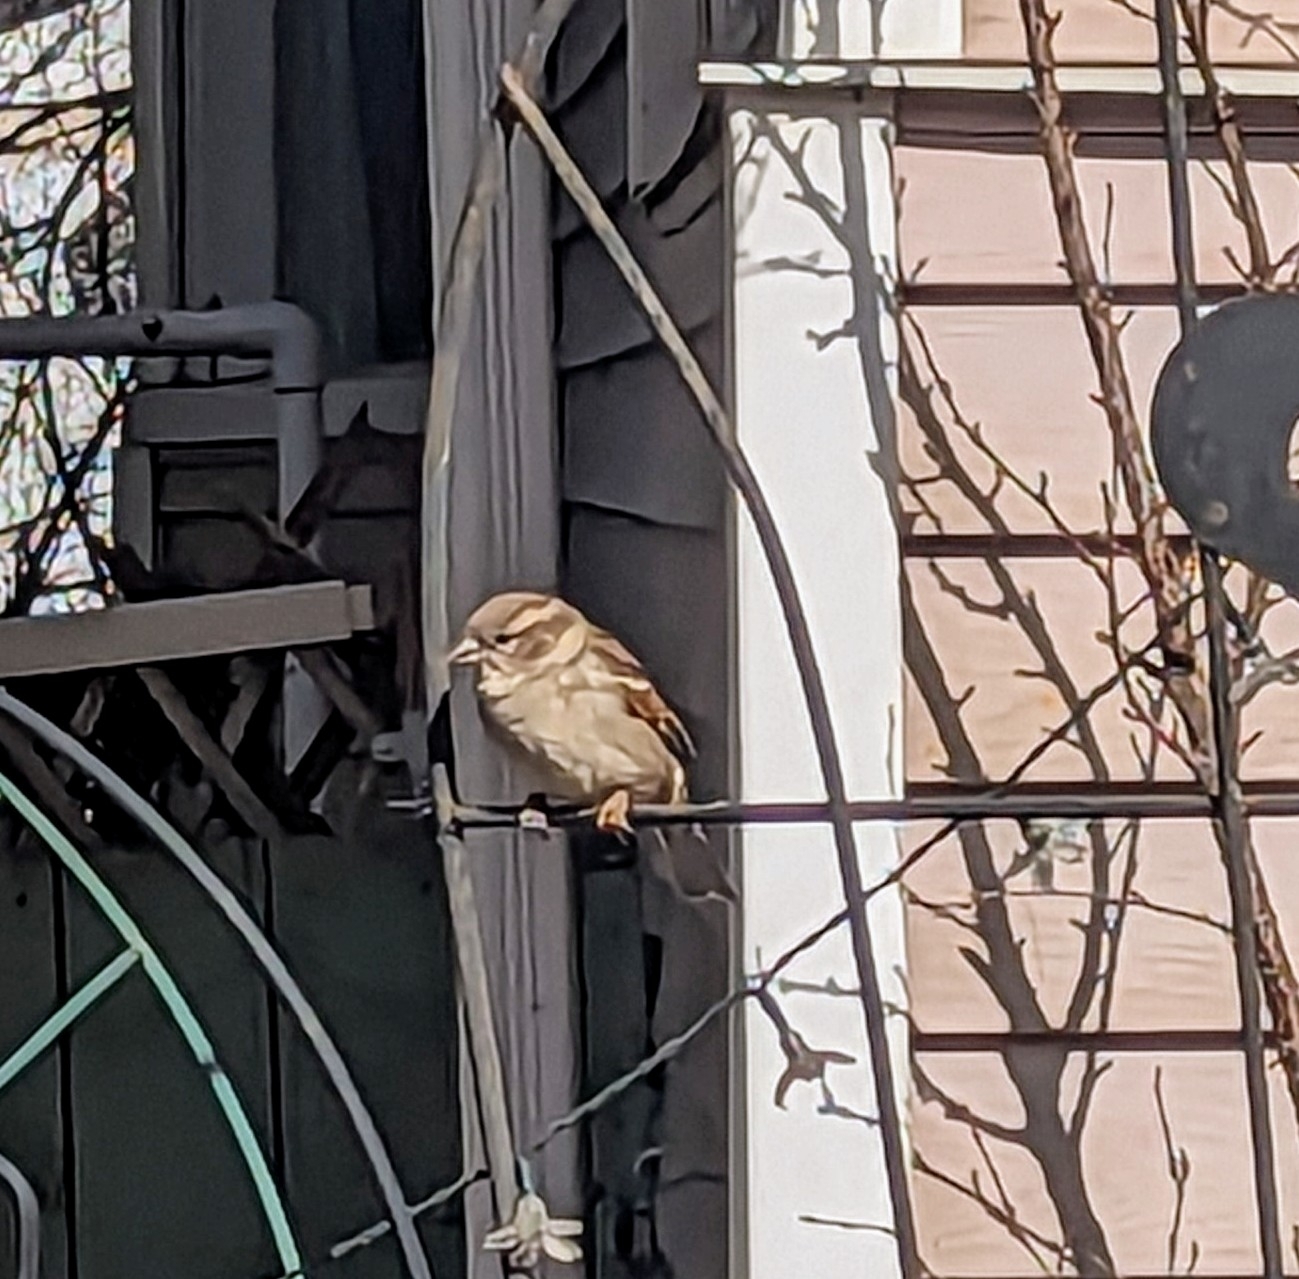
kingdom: Animalia
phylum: Chordata
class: Aves
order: Passeriformes
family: Passeridae
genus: Passer
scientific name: Passer domesticus
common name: House sparrow
